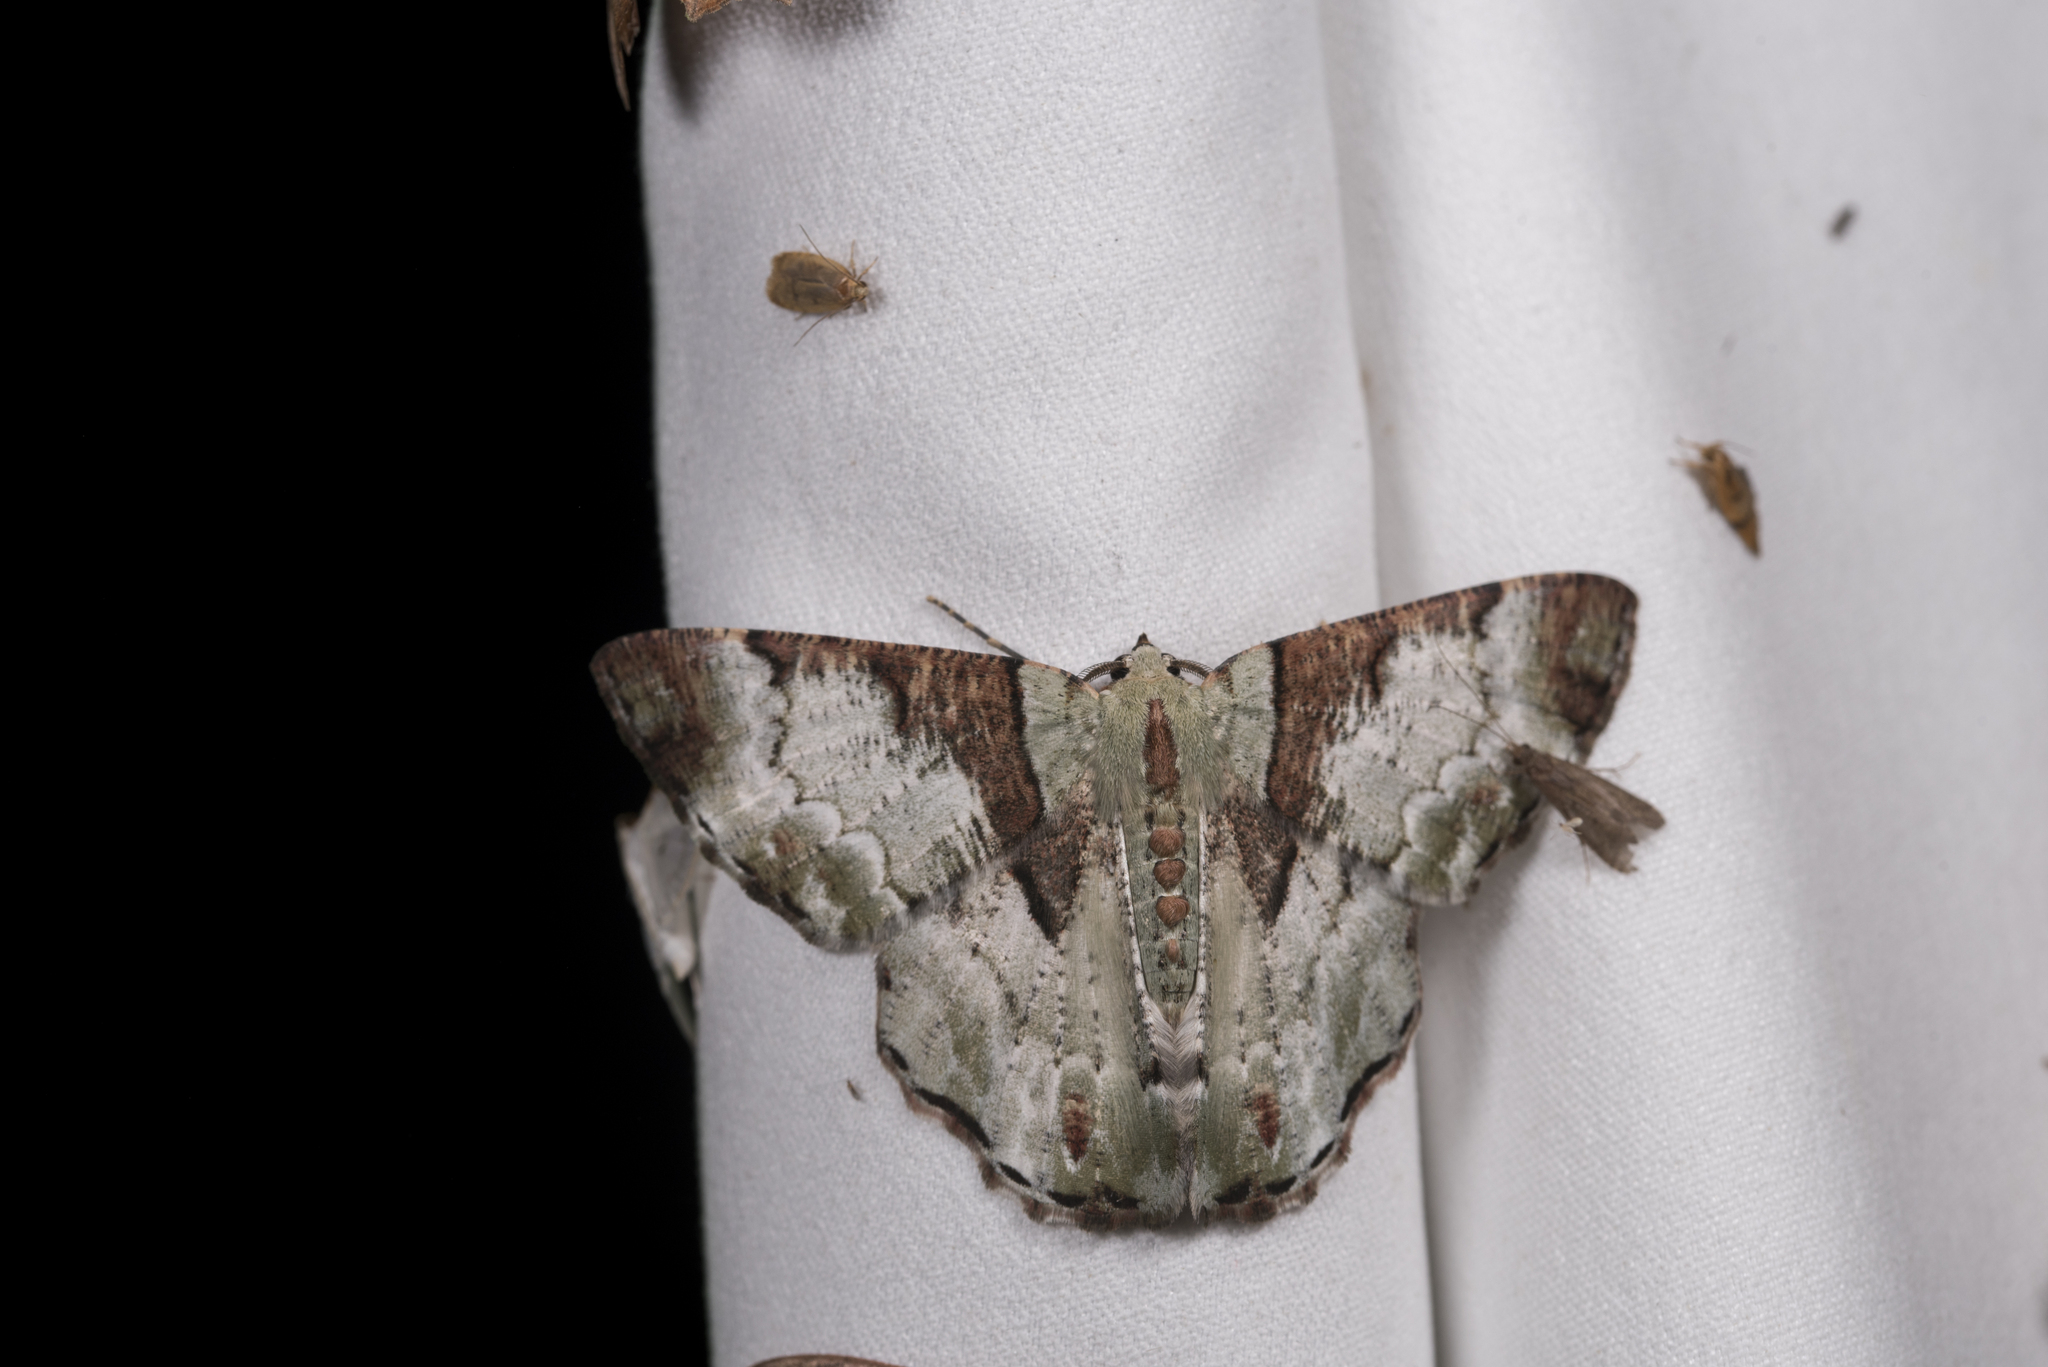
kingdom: Animalia
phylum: Arthropoda
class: Insecta
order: Lepidoptera
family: Geometridae
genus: Pachyodes
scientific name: Pachyodes subtrita
